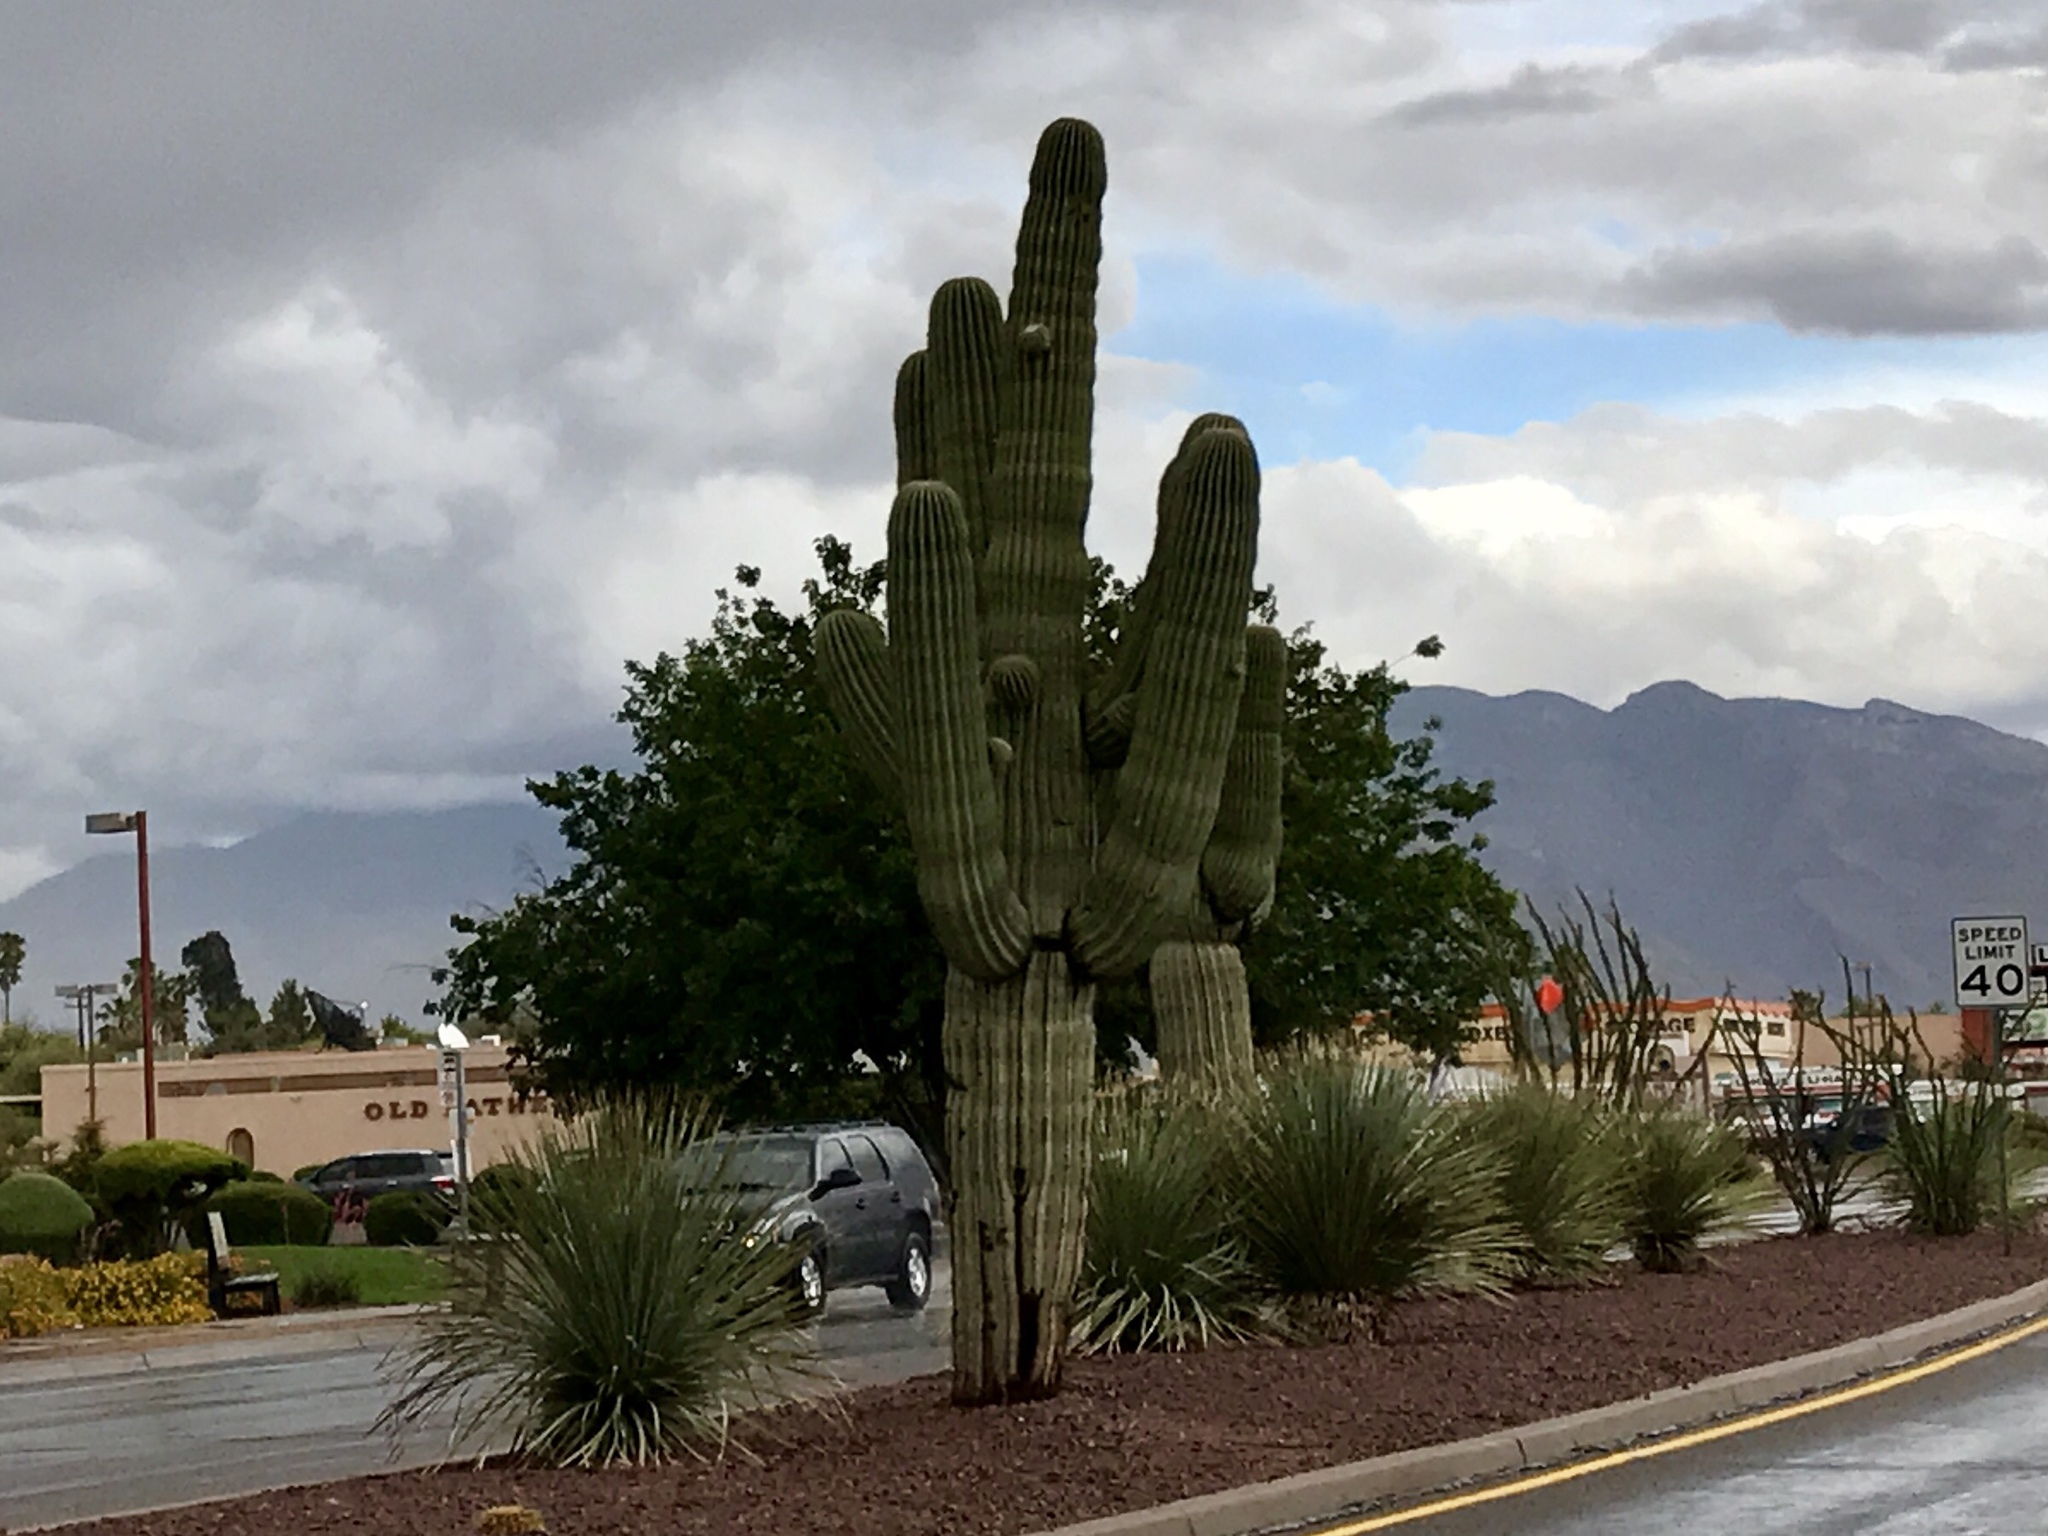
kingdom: Plantae
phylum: Tracheophyta
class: Magnoliopsida
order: Caryophyllales
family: Cactaceae
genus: Carnegiea
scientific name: Carnegiea gigantea
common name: Saguaro
